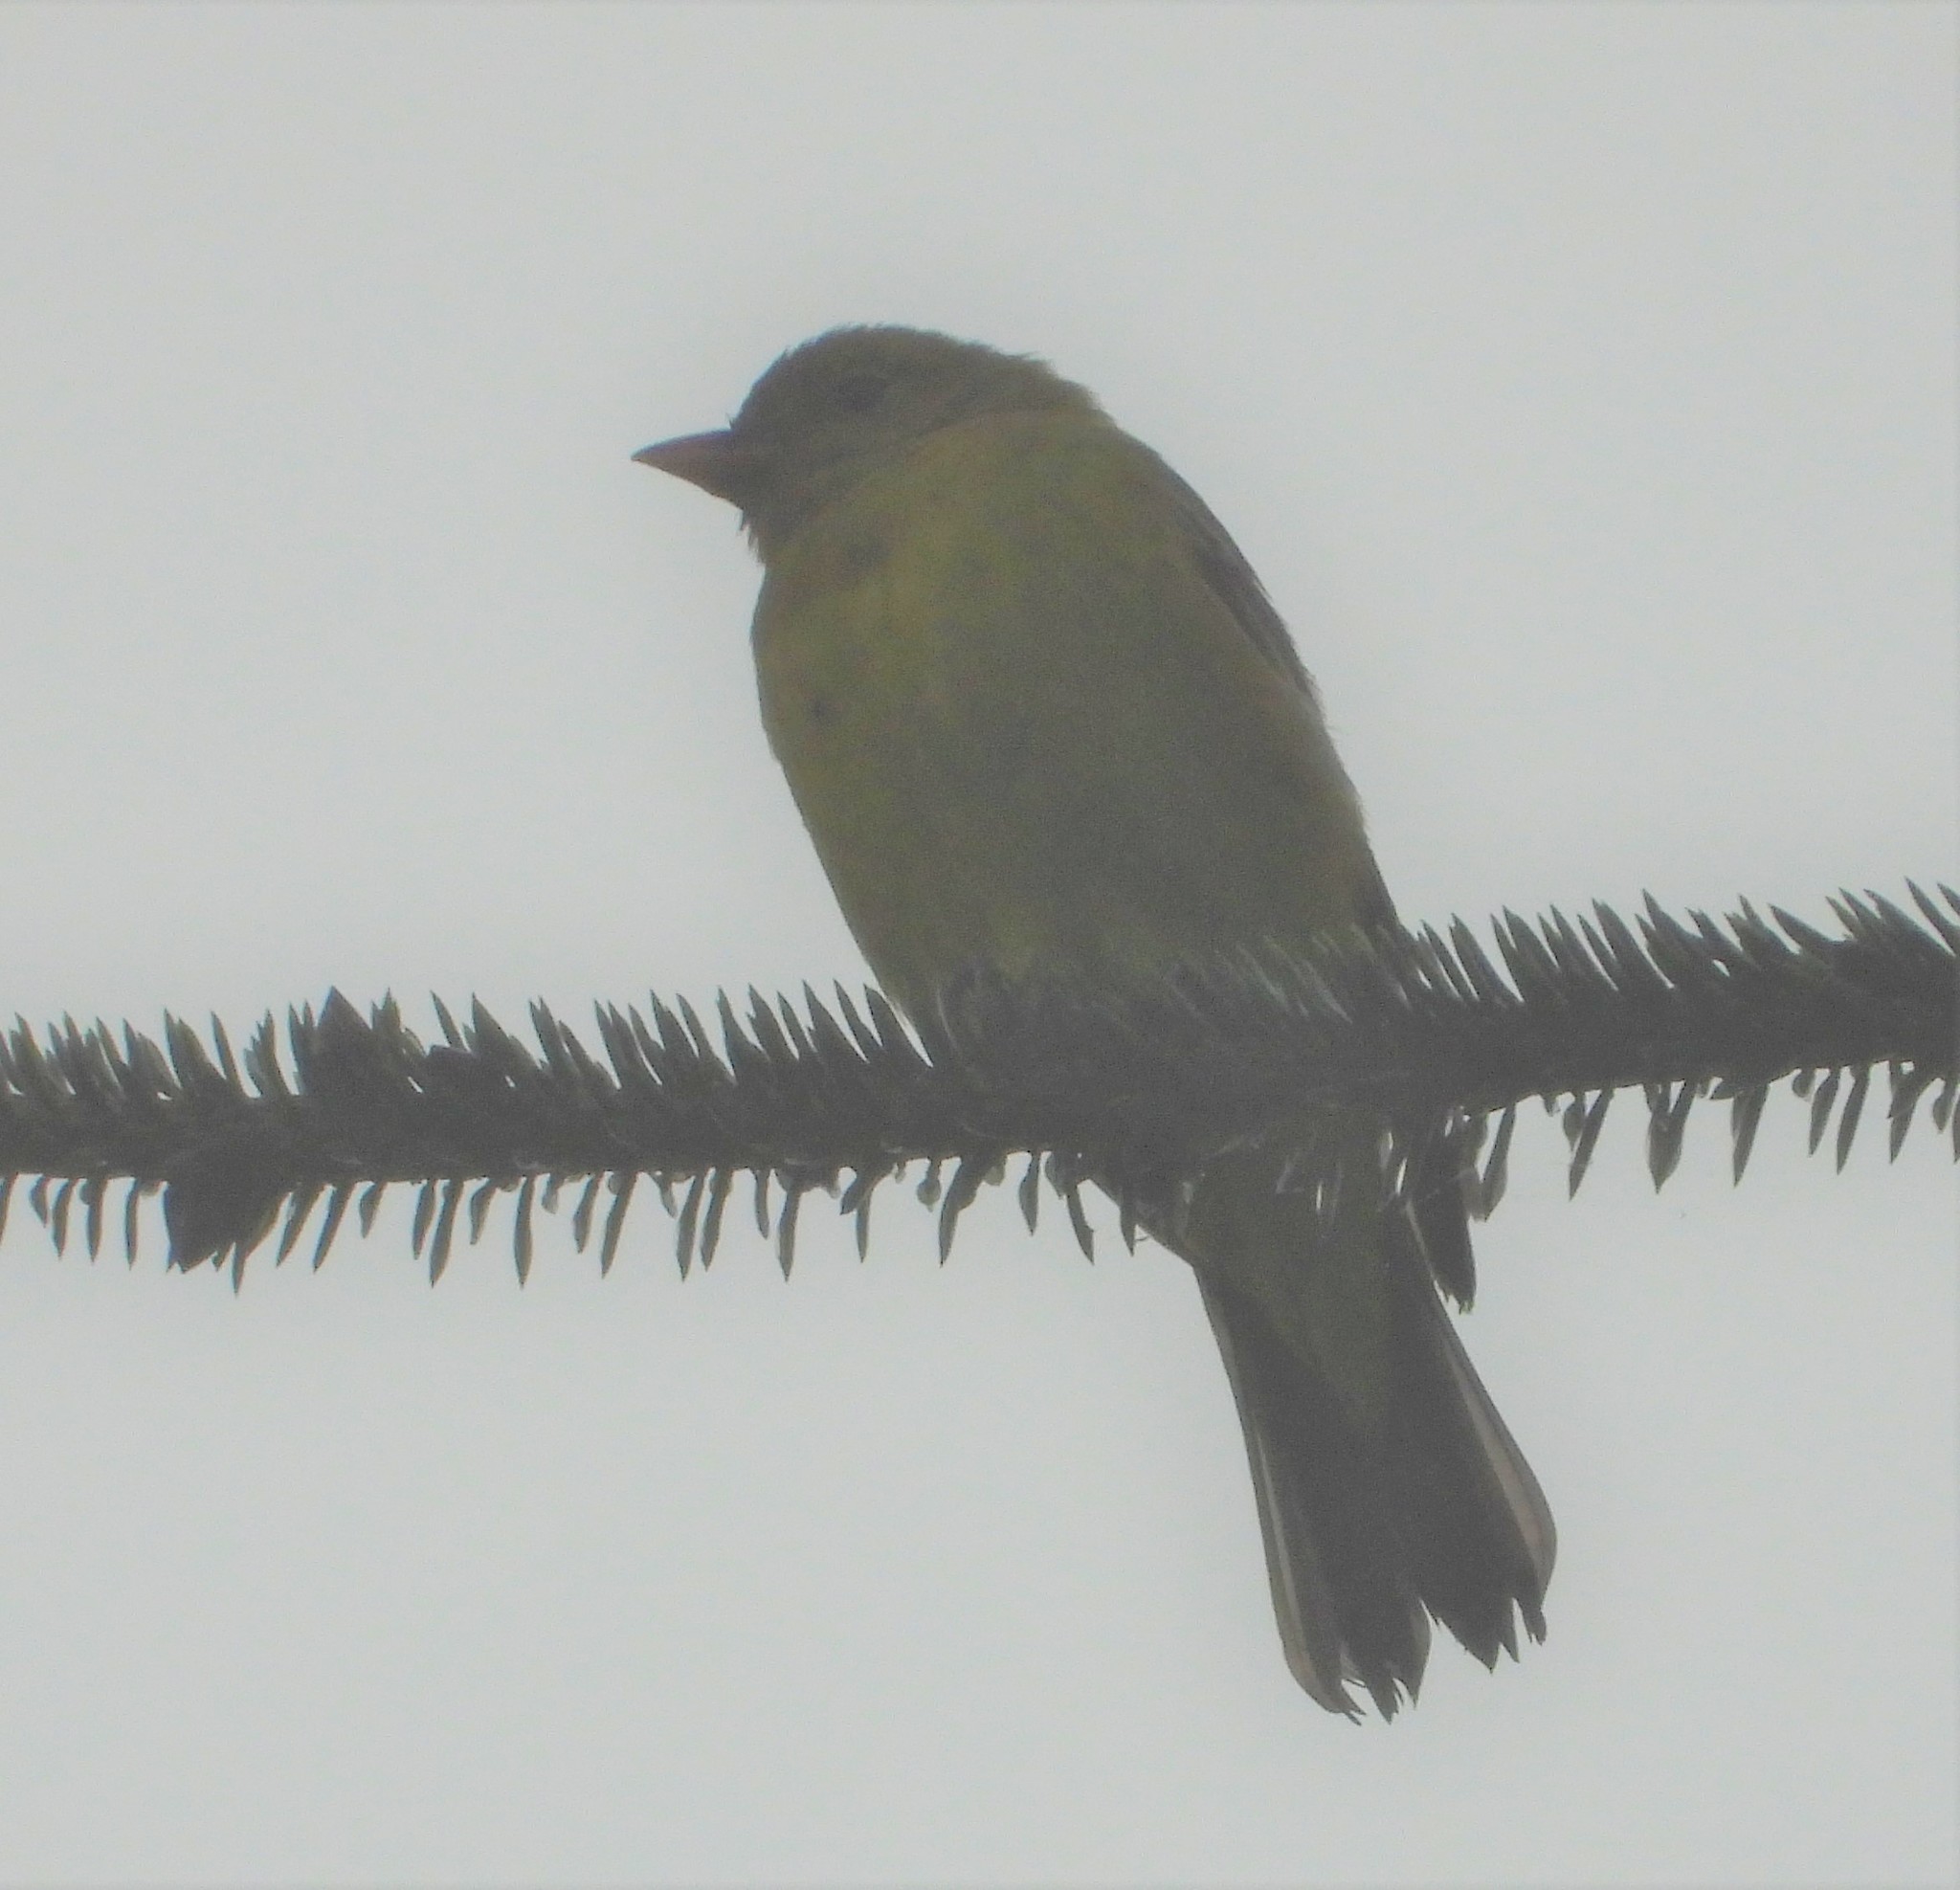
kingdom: Animalia
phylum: Chordata
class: Aves
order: Passeriformes
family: Cardinalidae
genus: Piranga
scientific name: Piranga ludoviciana
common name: Western tanager
